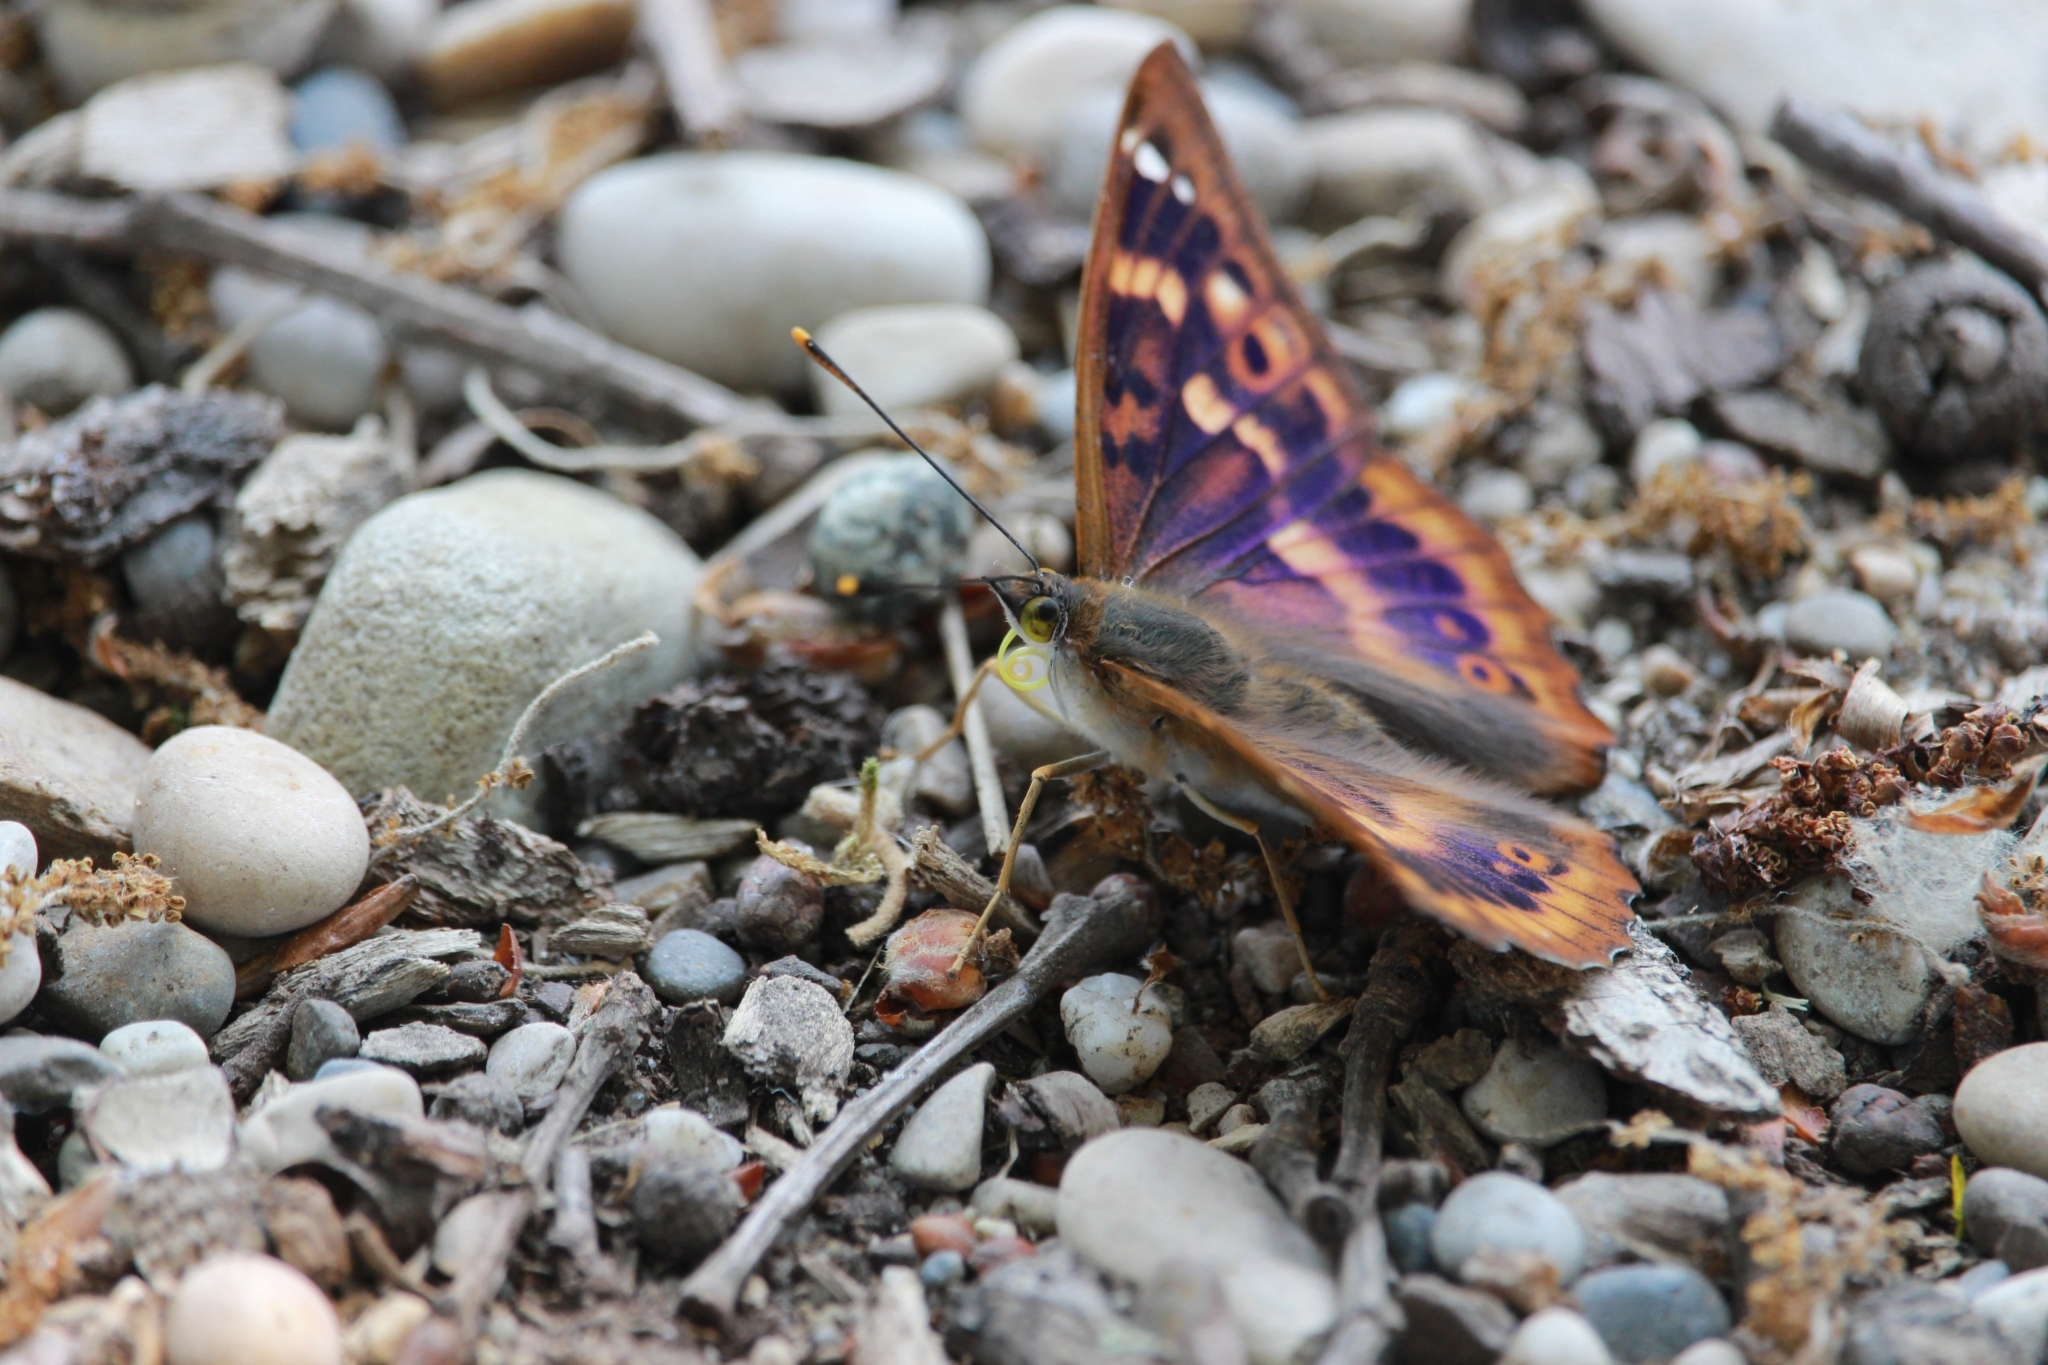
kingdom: Animalia
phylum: Arthropoda
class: Insecta
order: Lepidoptera
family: Nymphalidae
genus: Apatura
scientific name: Apatura ilia
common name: Lesser purple emperor
